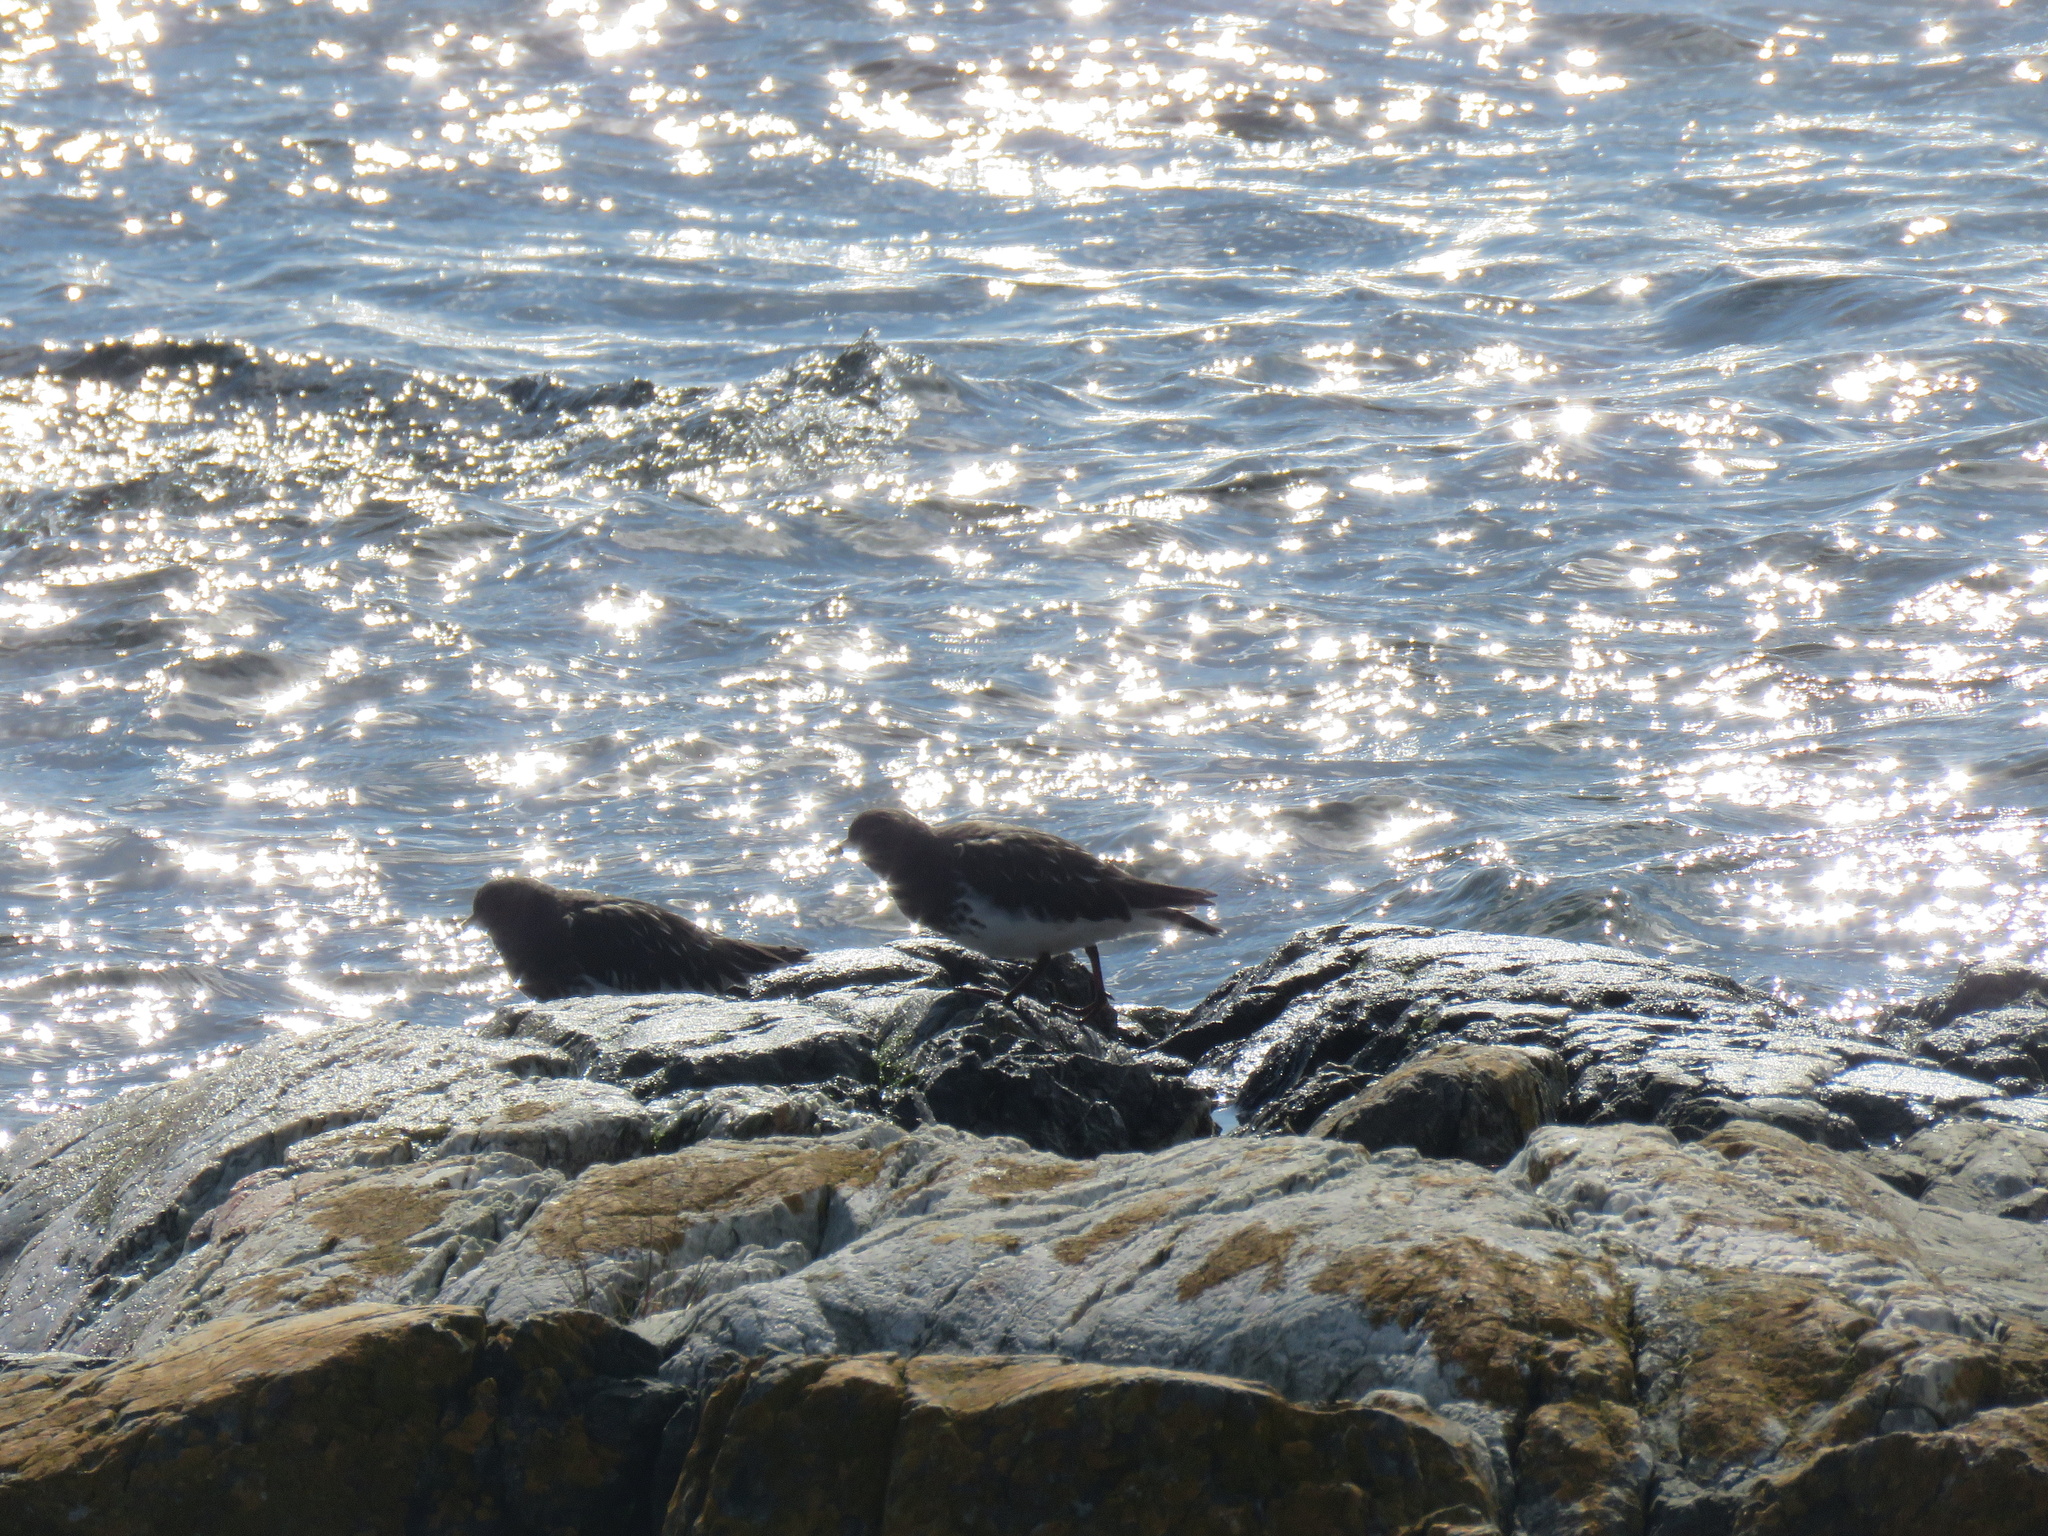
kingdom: Animalia
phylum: Chordata
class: Aves
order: Charadriiformes
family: Scolopacidae
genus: Arenaria
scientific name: Arenaria melanocephala
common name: Black turnstone
